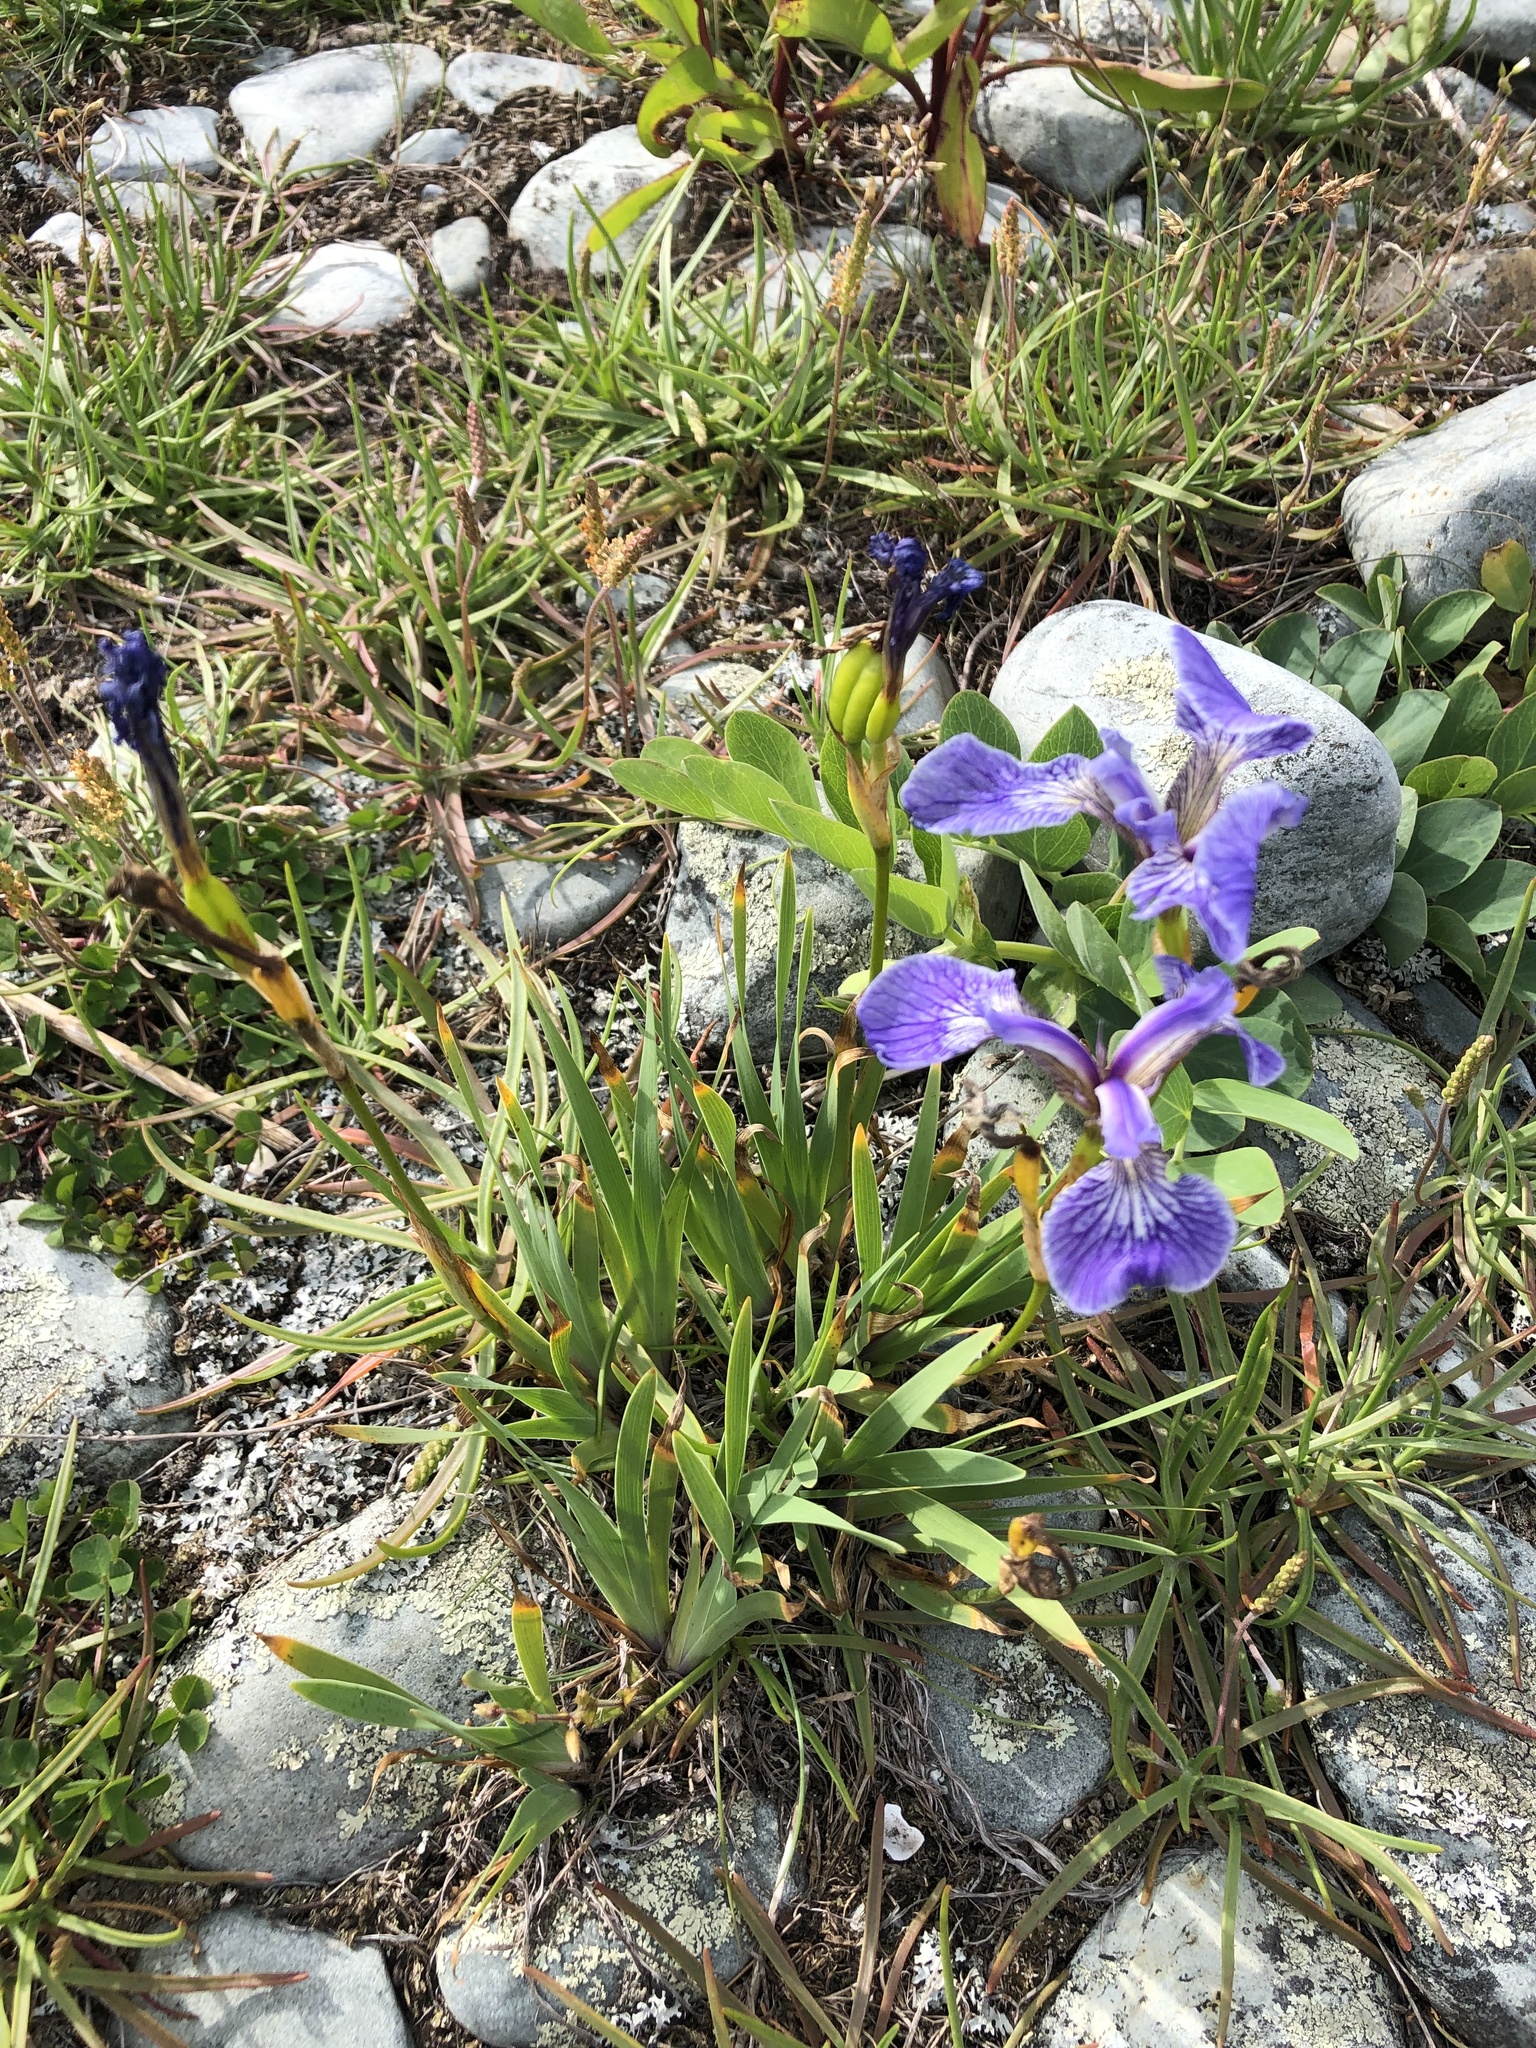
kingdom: Plantae
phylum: Tracheophyta
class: Liliopsida
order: Asparagales
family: Iridaceae
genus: Iris
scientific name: Iris hookeri
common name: Canada beach-head iris
